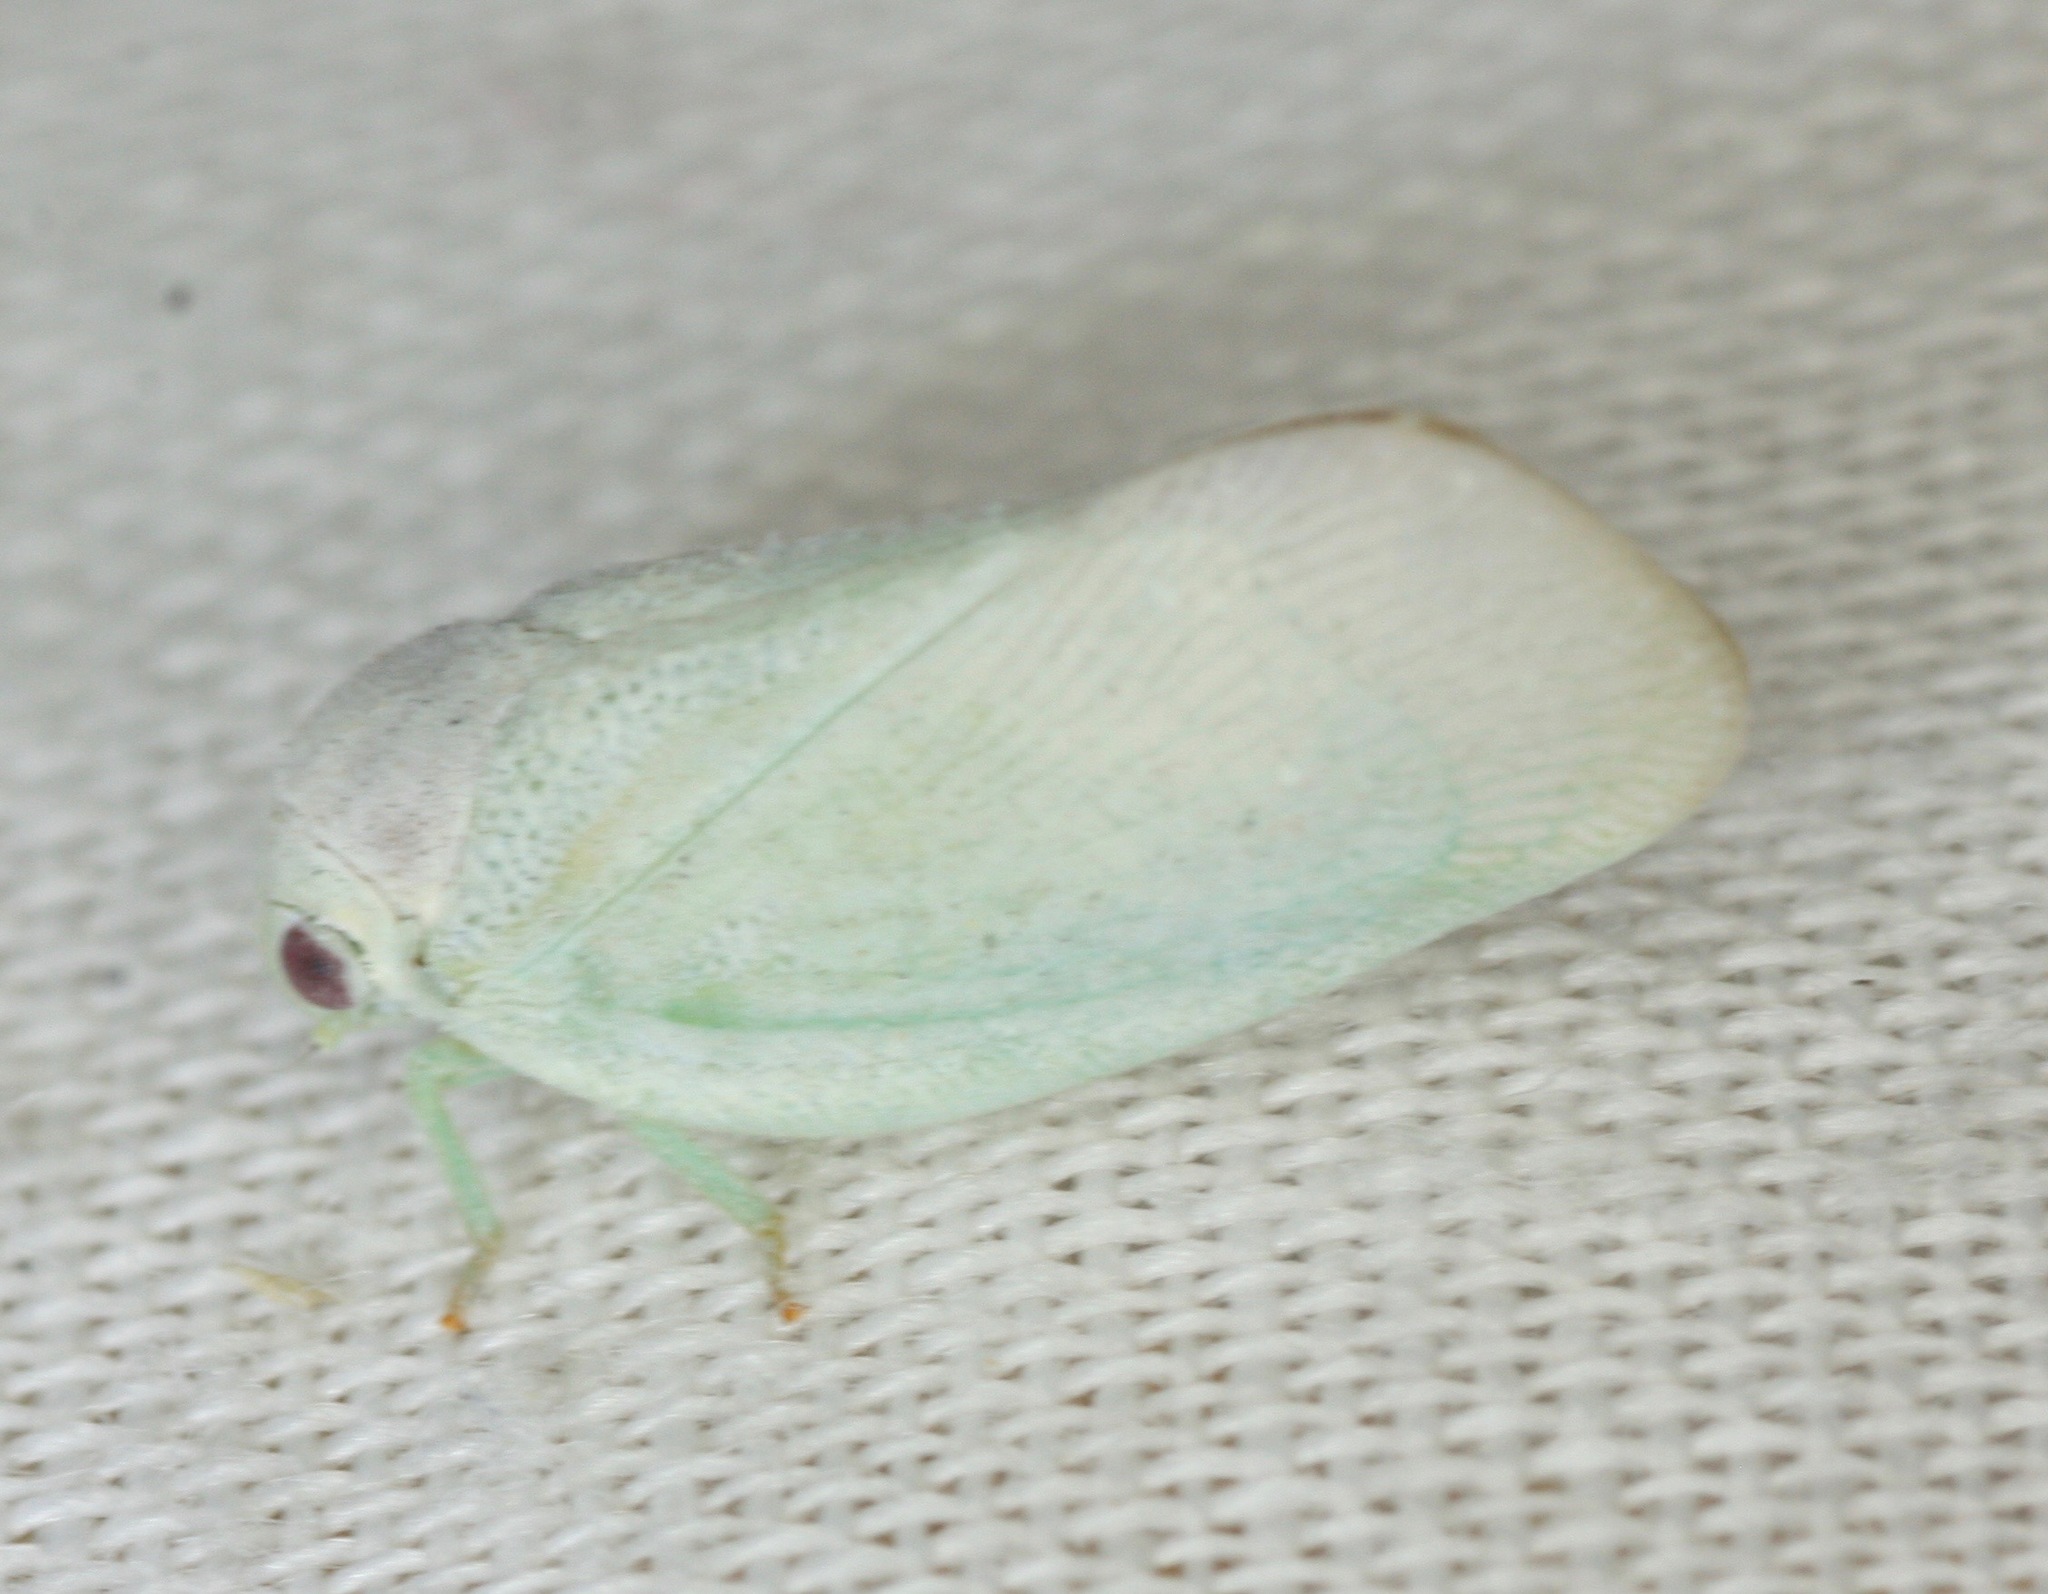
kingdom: Animalia
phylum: Arthropoda
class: Insecta
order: Hemiptera
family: Flatidae
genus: Flatormenis
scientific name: Flatormenis saucia
